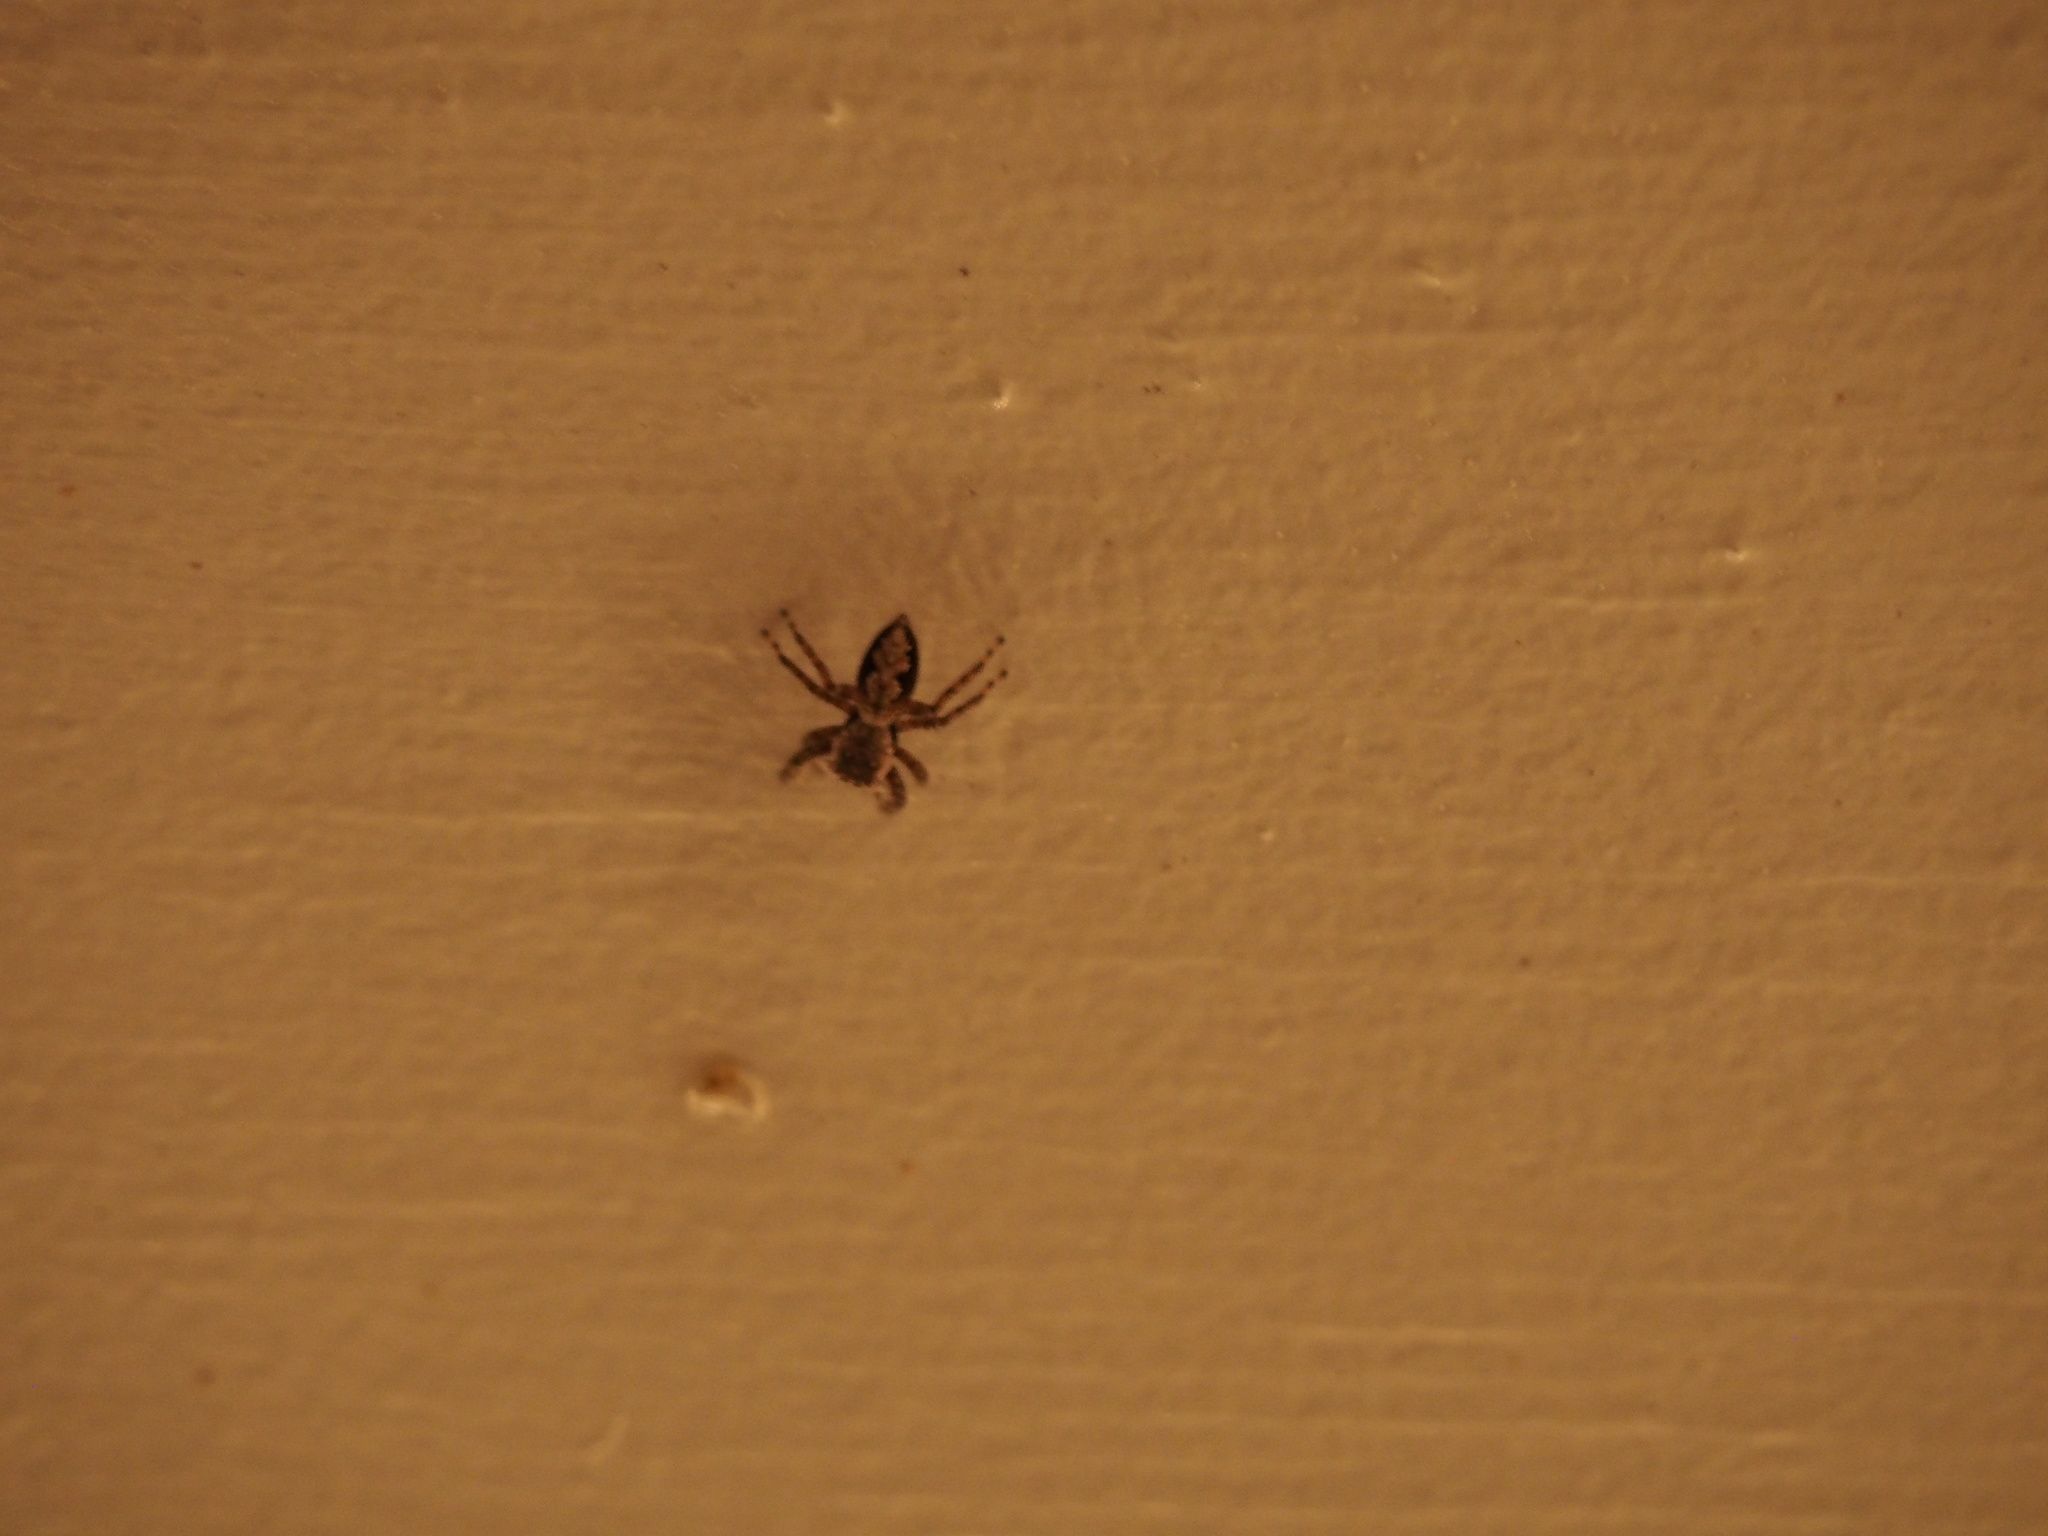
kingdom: Animalia
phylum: Arthropoda
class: Arachnida
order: Araneae
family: Salticidae
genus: Platycryptus
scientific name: Platycryptus undatus
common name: Tan jumping spider
